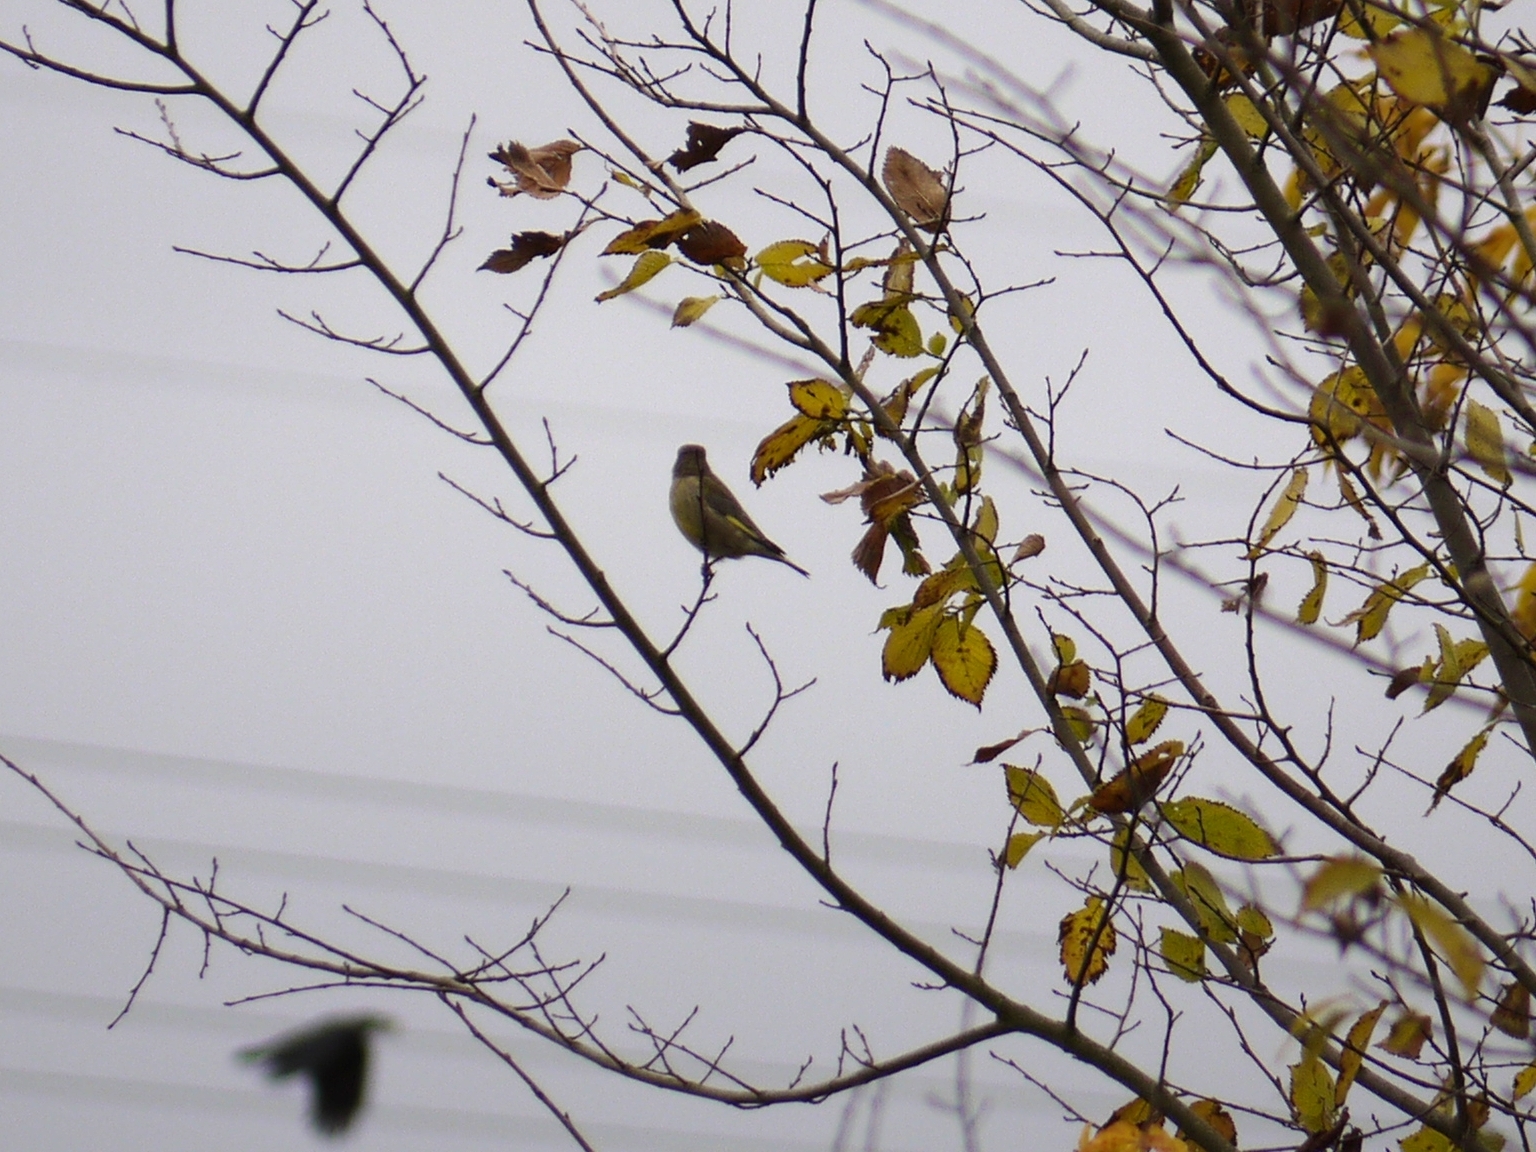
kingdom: Plantae
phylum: Tracheophyta
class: Liliopsida
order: Poales
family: Poaceae
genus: Chloris
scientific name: Chloris chloris
